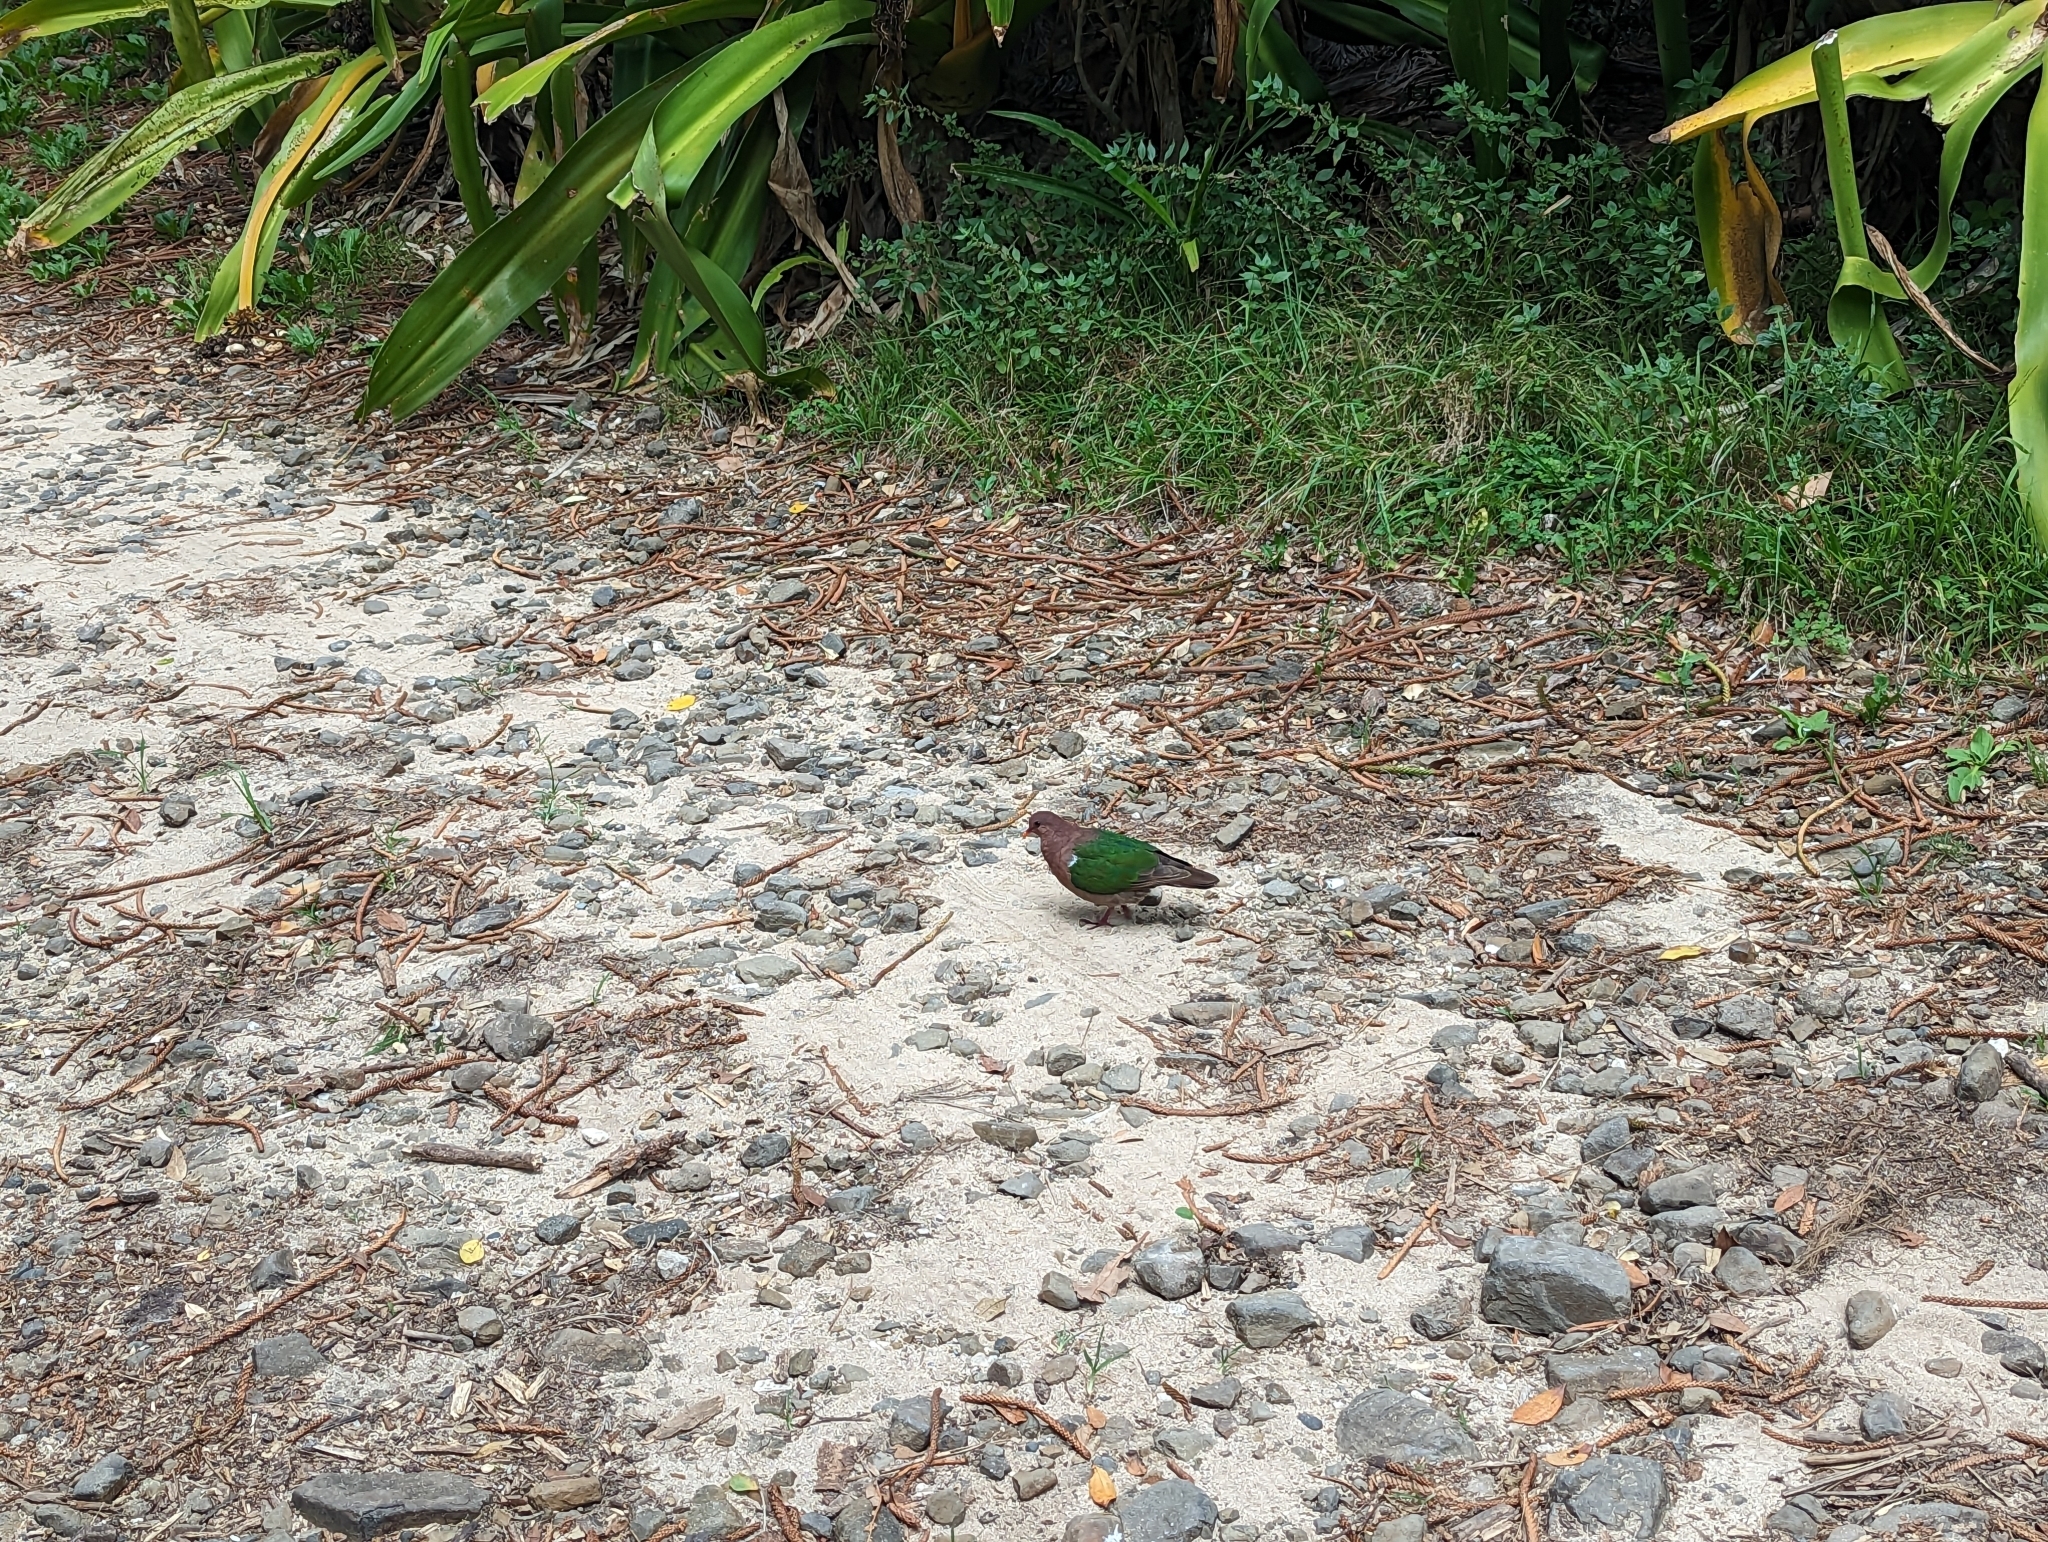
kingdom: Animalia
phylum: Chordata
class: Aves
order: Columbiformes
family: Columbidae
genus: Chalcophaps
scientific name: Chalcophaps longirostris
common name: Pacific emerald dove
